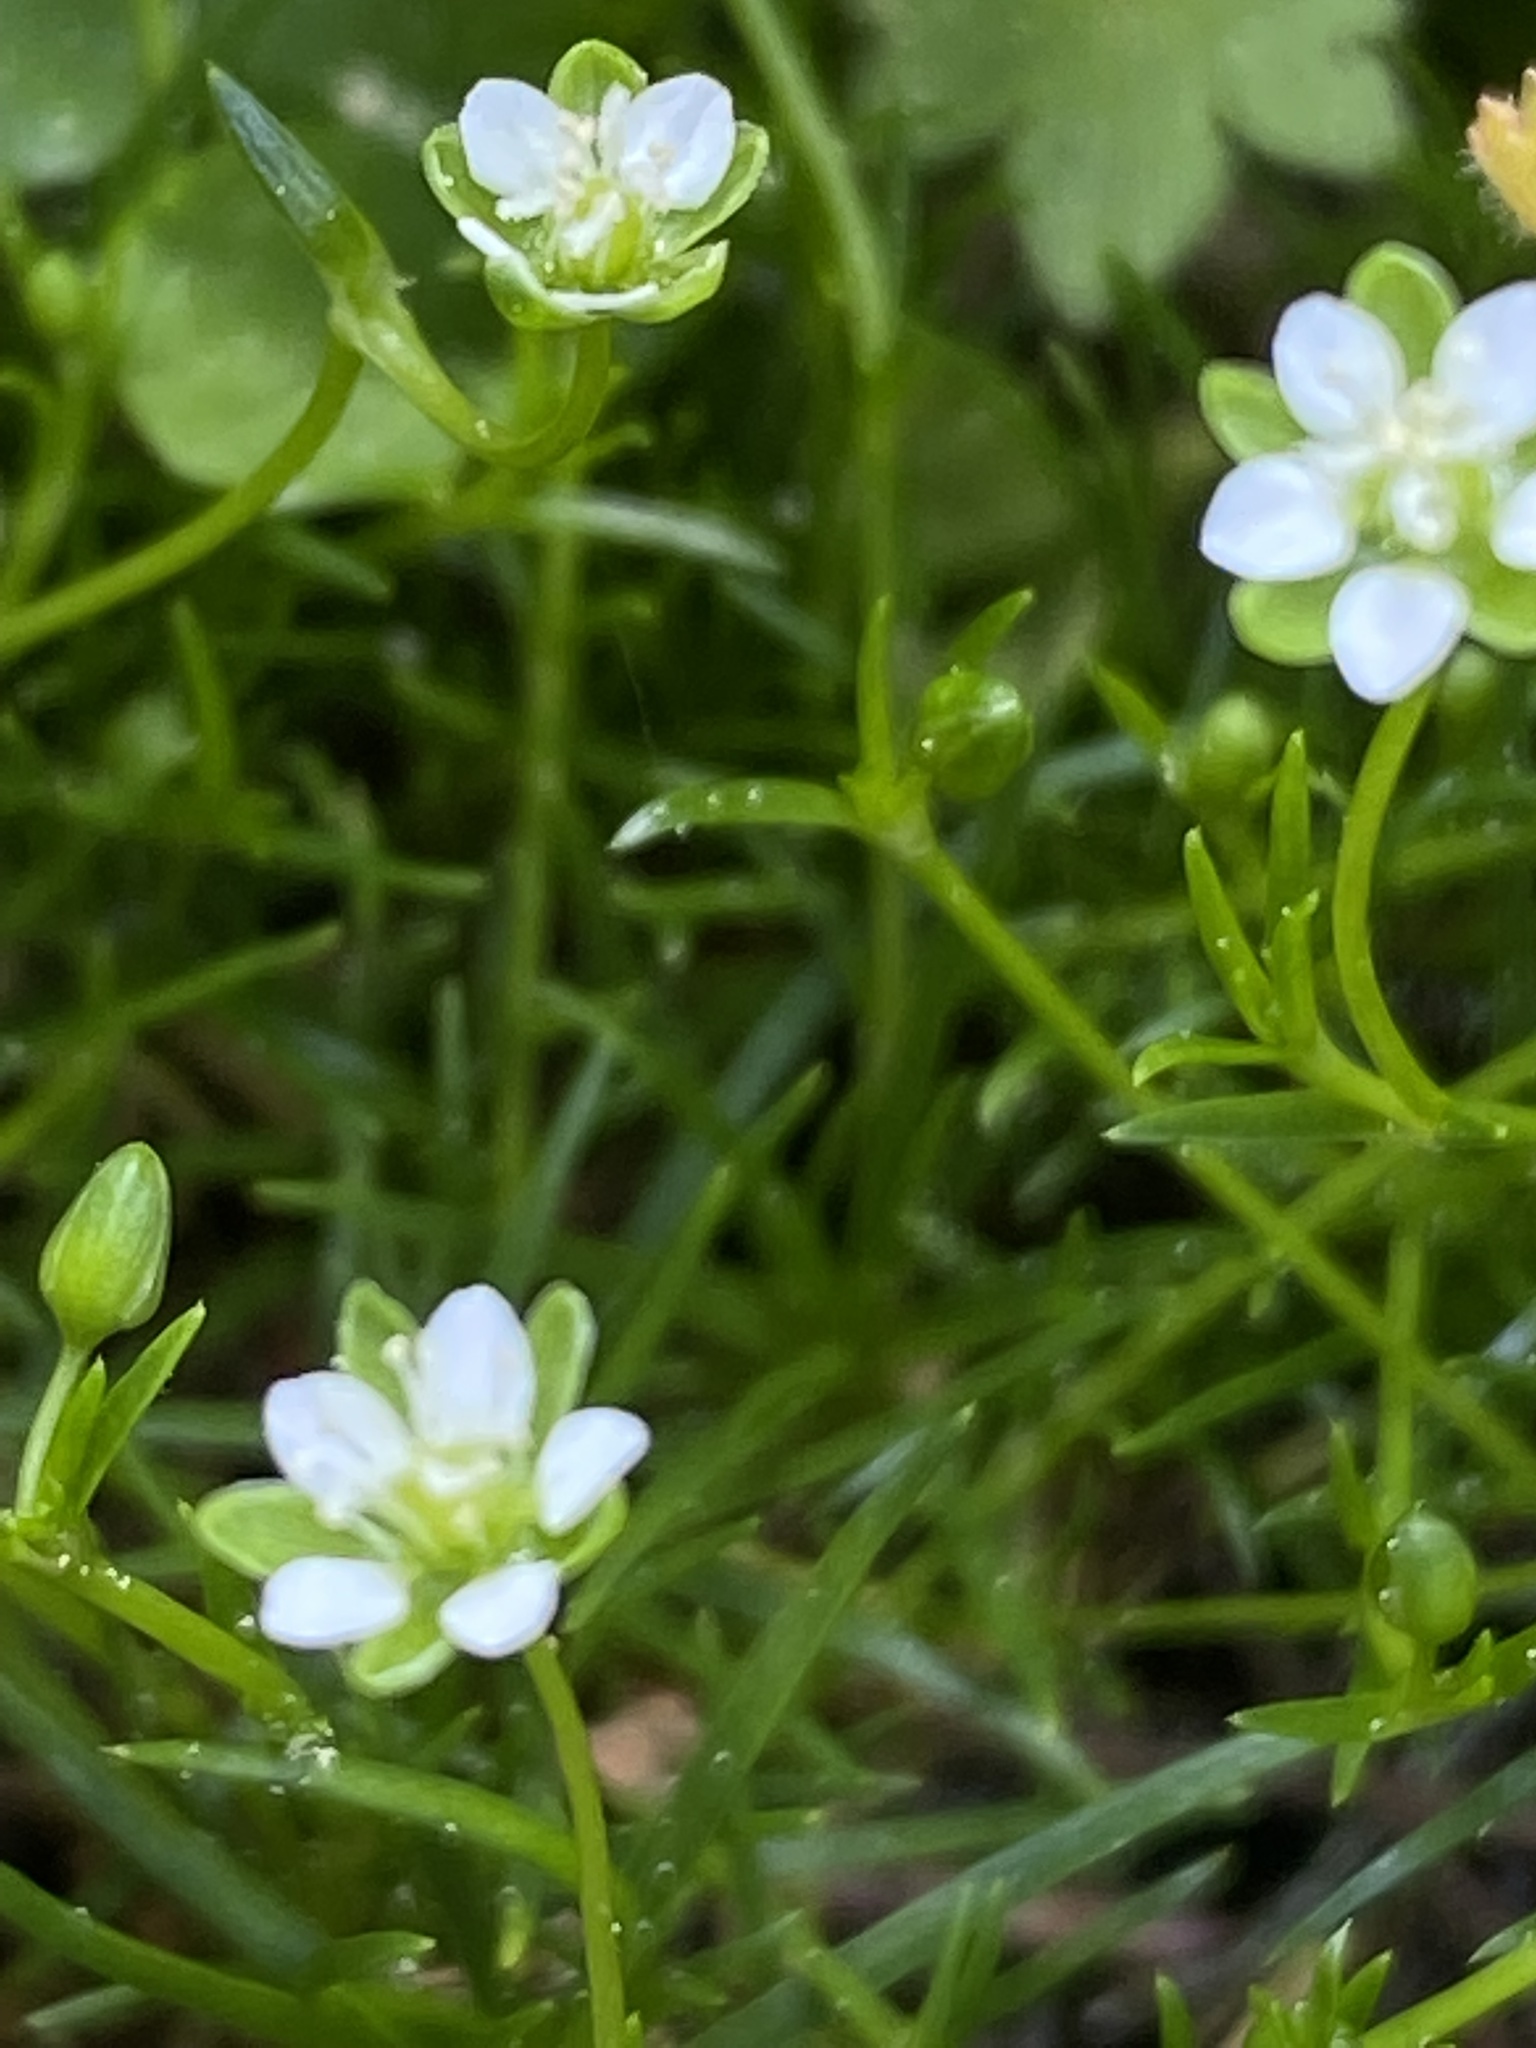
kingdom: Plantae
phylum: Tracheophyta
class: Magnoliopsida
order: Caryophyllales
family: Caryophyllaceae
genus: Sagina
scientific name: Sagina saginoides
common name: Alpine pearlwort
